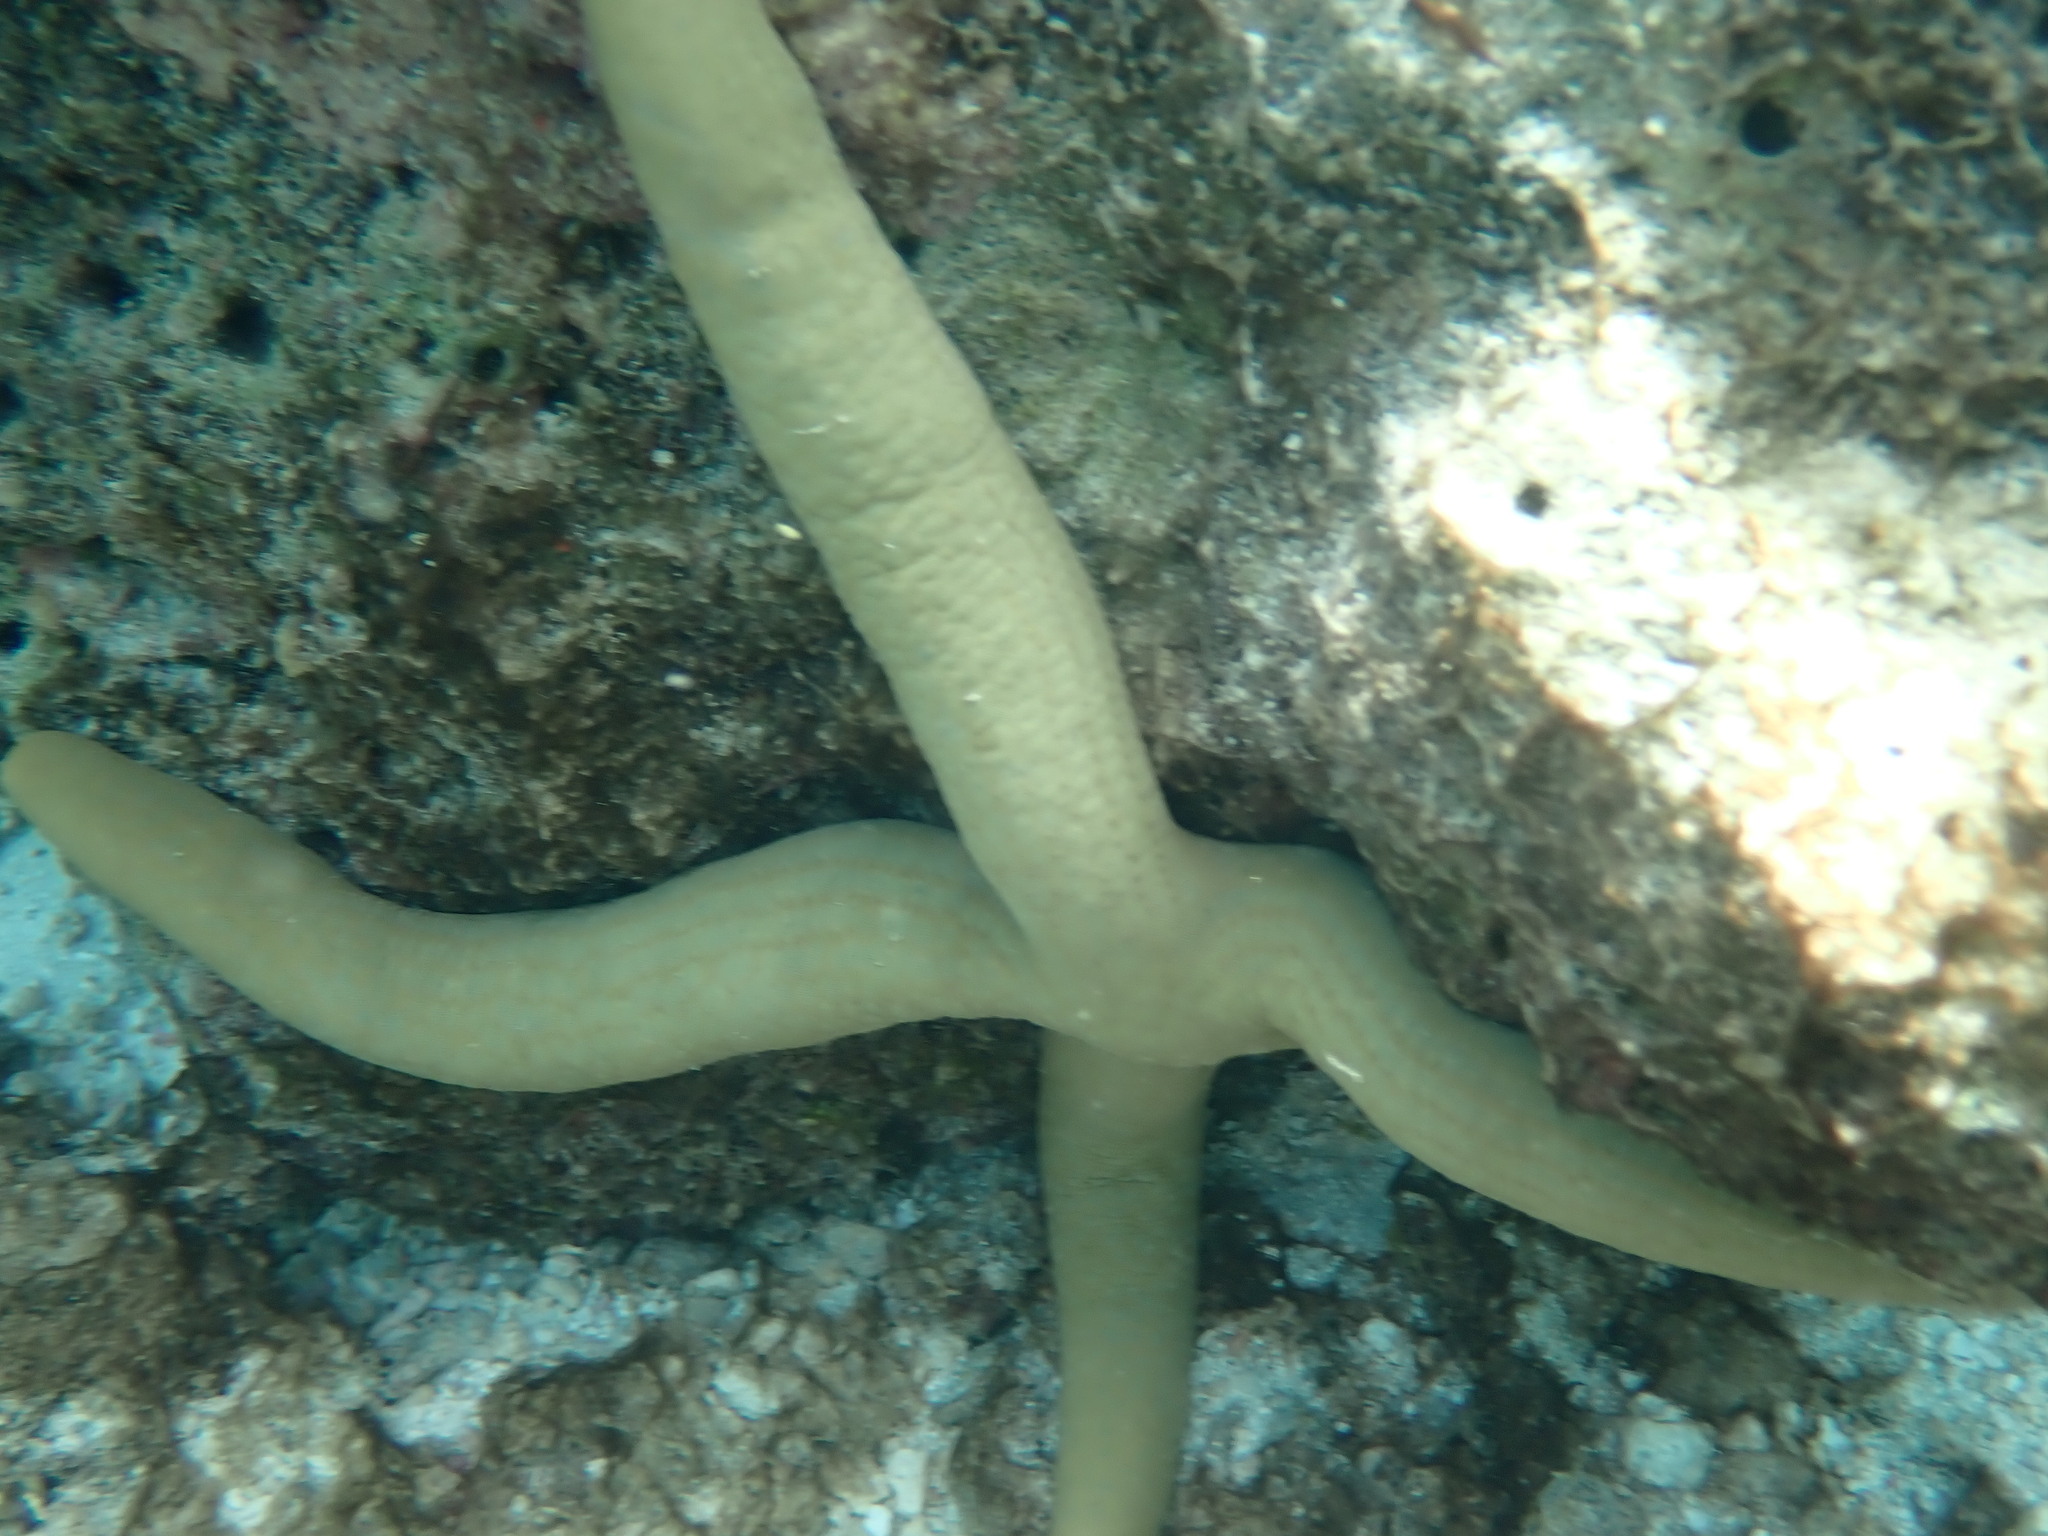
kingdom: Animalia
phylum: Echinodermata
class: Asteroidea
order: Valvatida
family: Ophidiasteridae
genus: Linckia
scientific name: Linckia guildingi
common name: Common comet star
